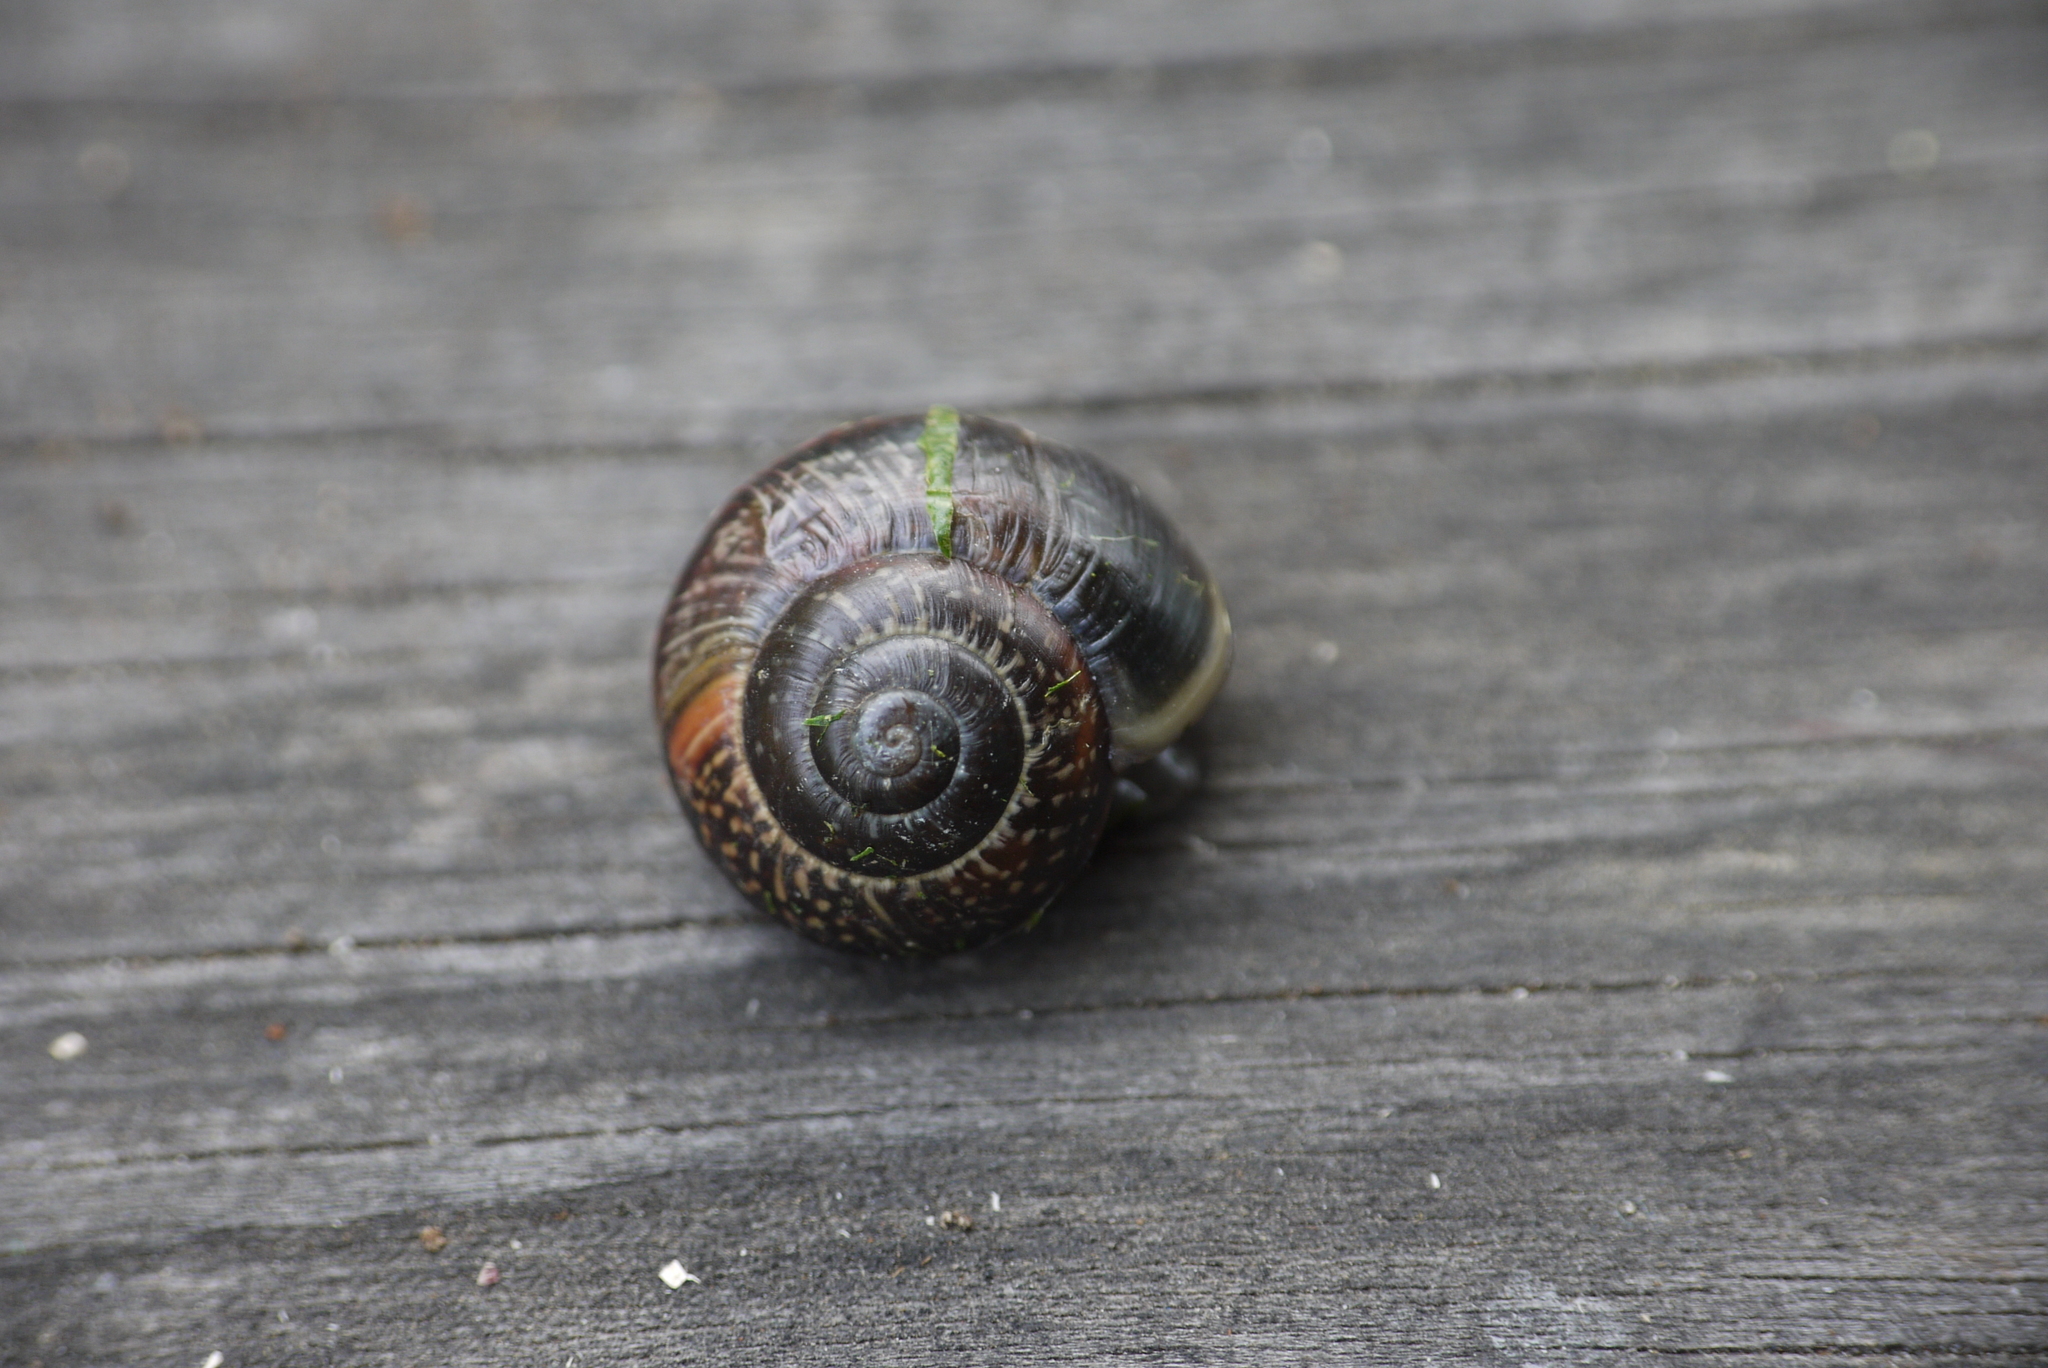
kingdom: Animalia
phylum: Mollusca
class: Gastropoda
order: Stylommatophora
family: Helicidae
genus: Arianta
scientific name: Arianta arbustorum
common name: Copse snail
